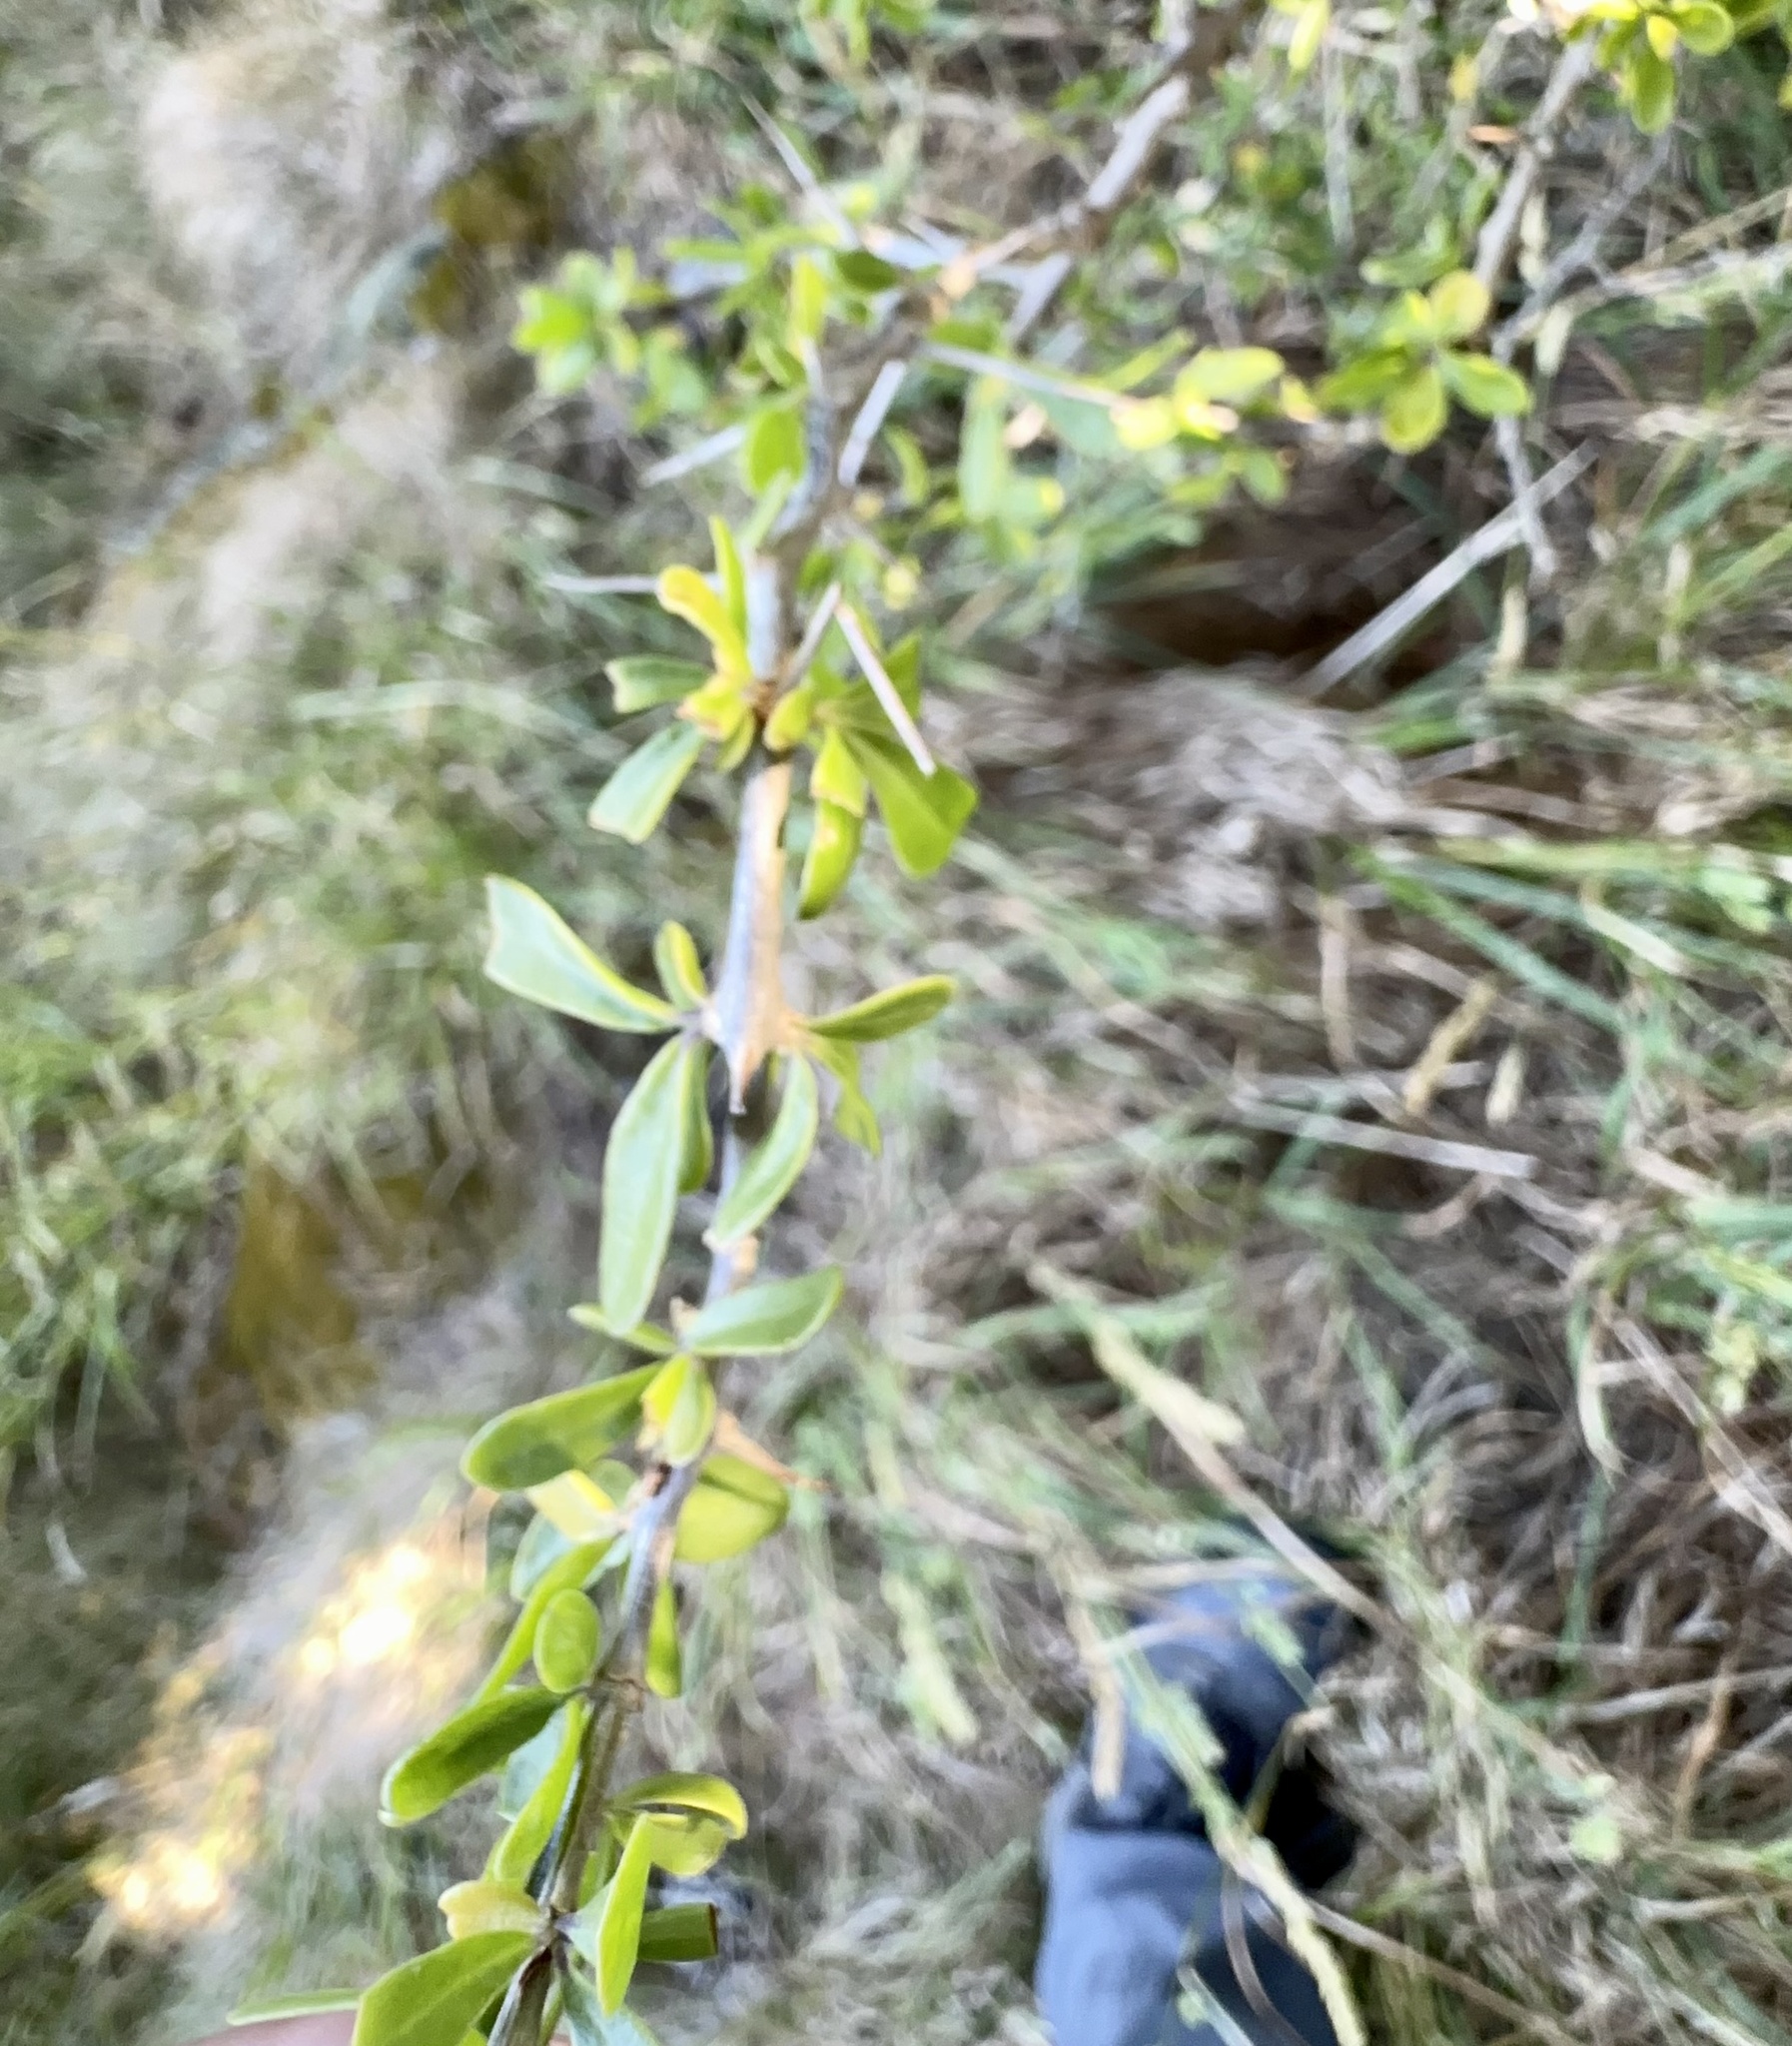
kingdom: Plantae
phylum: Tracheophyta
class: Magnoliopsida
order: Solanales
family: Solanaceae
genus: Lycium
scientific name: Lycium ferocissimum
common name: African boxthorn
